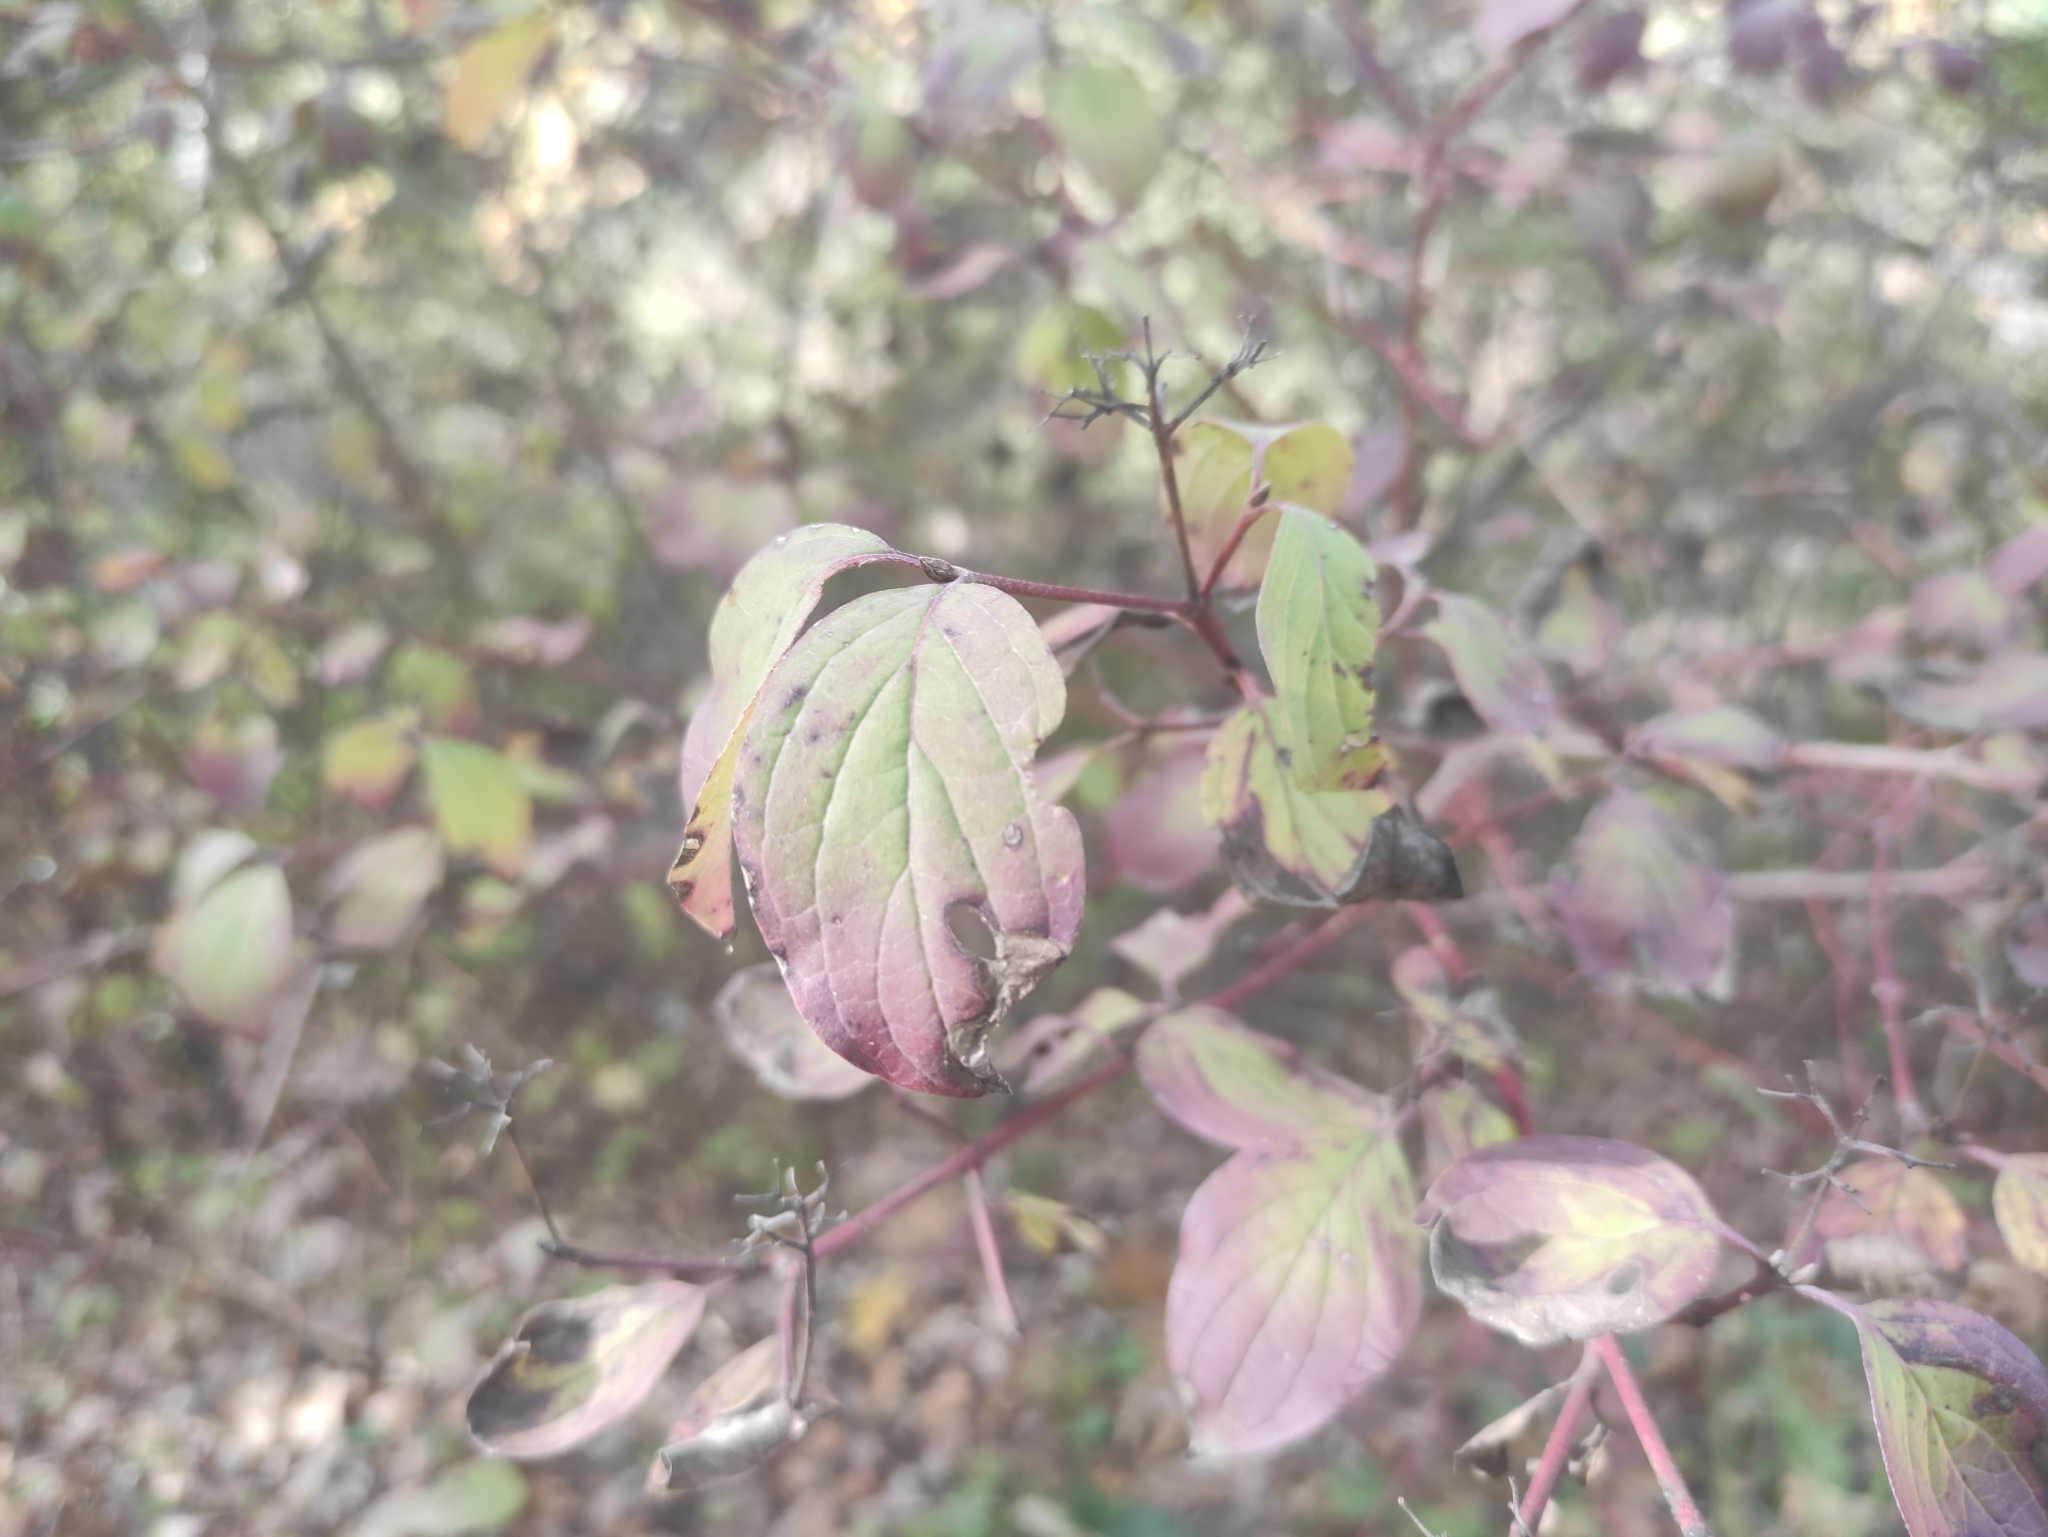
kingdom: Plantae
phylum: Tracheophyta
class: Magnoliopsida
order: Cornales
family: Cornaceae
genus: Cornus
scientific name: Cornus sanguinea
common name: Dogwood
